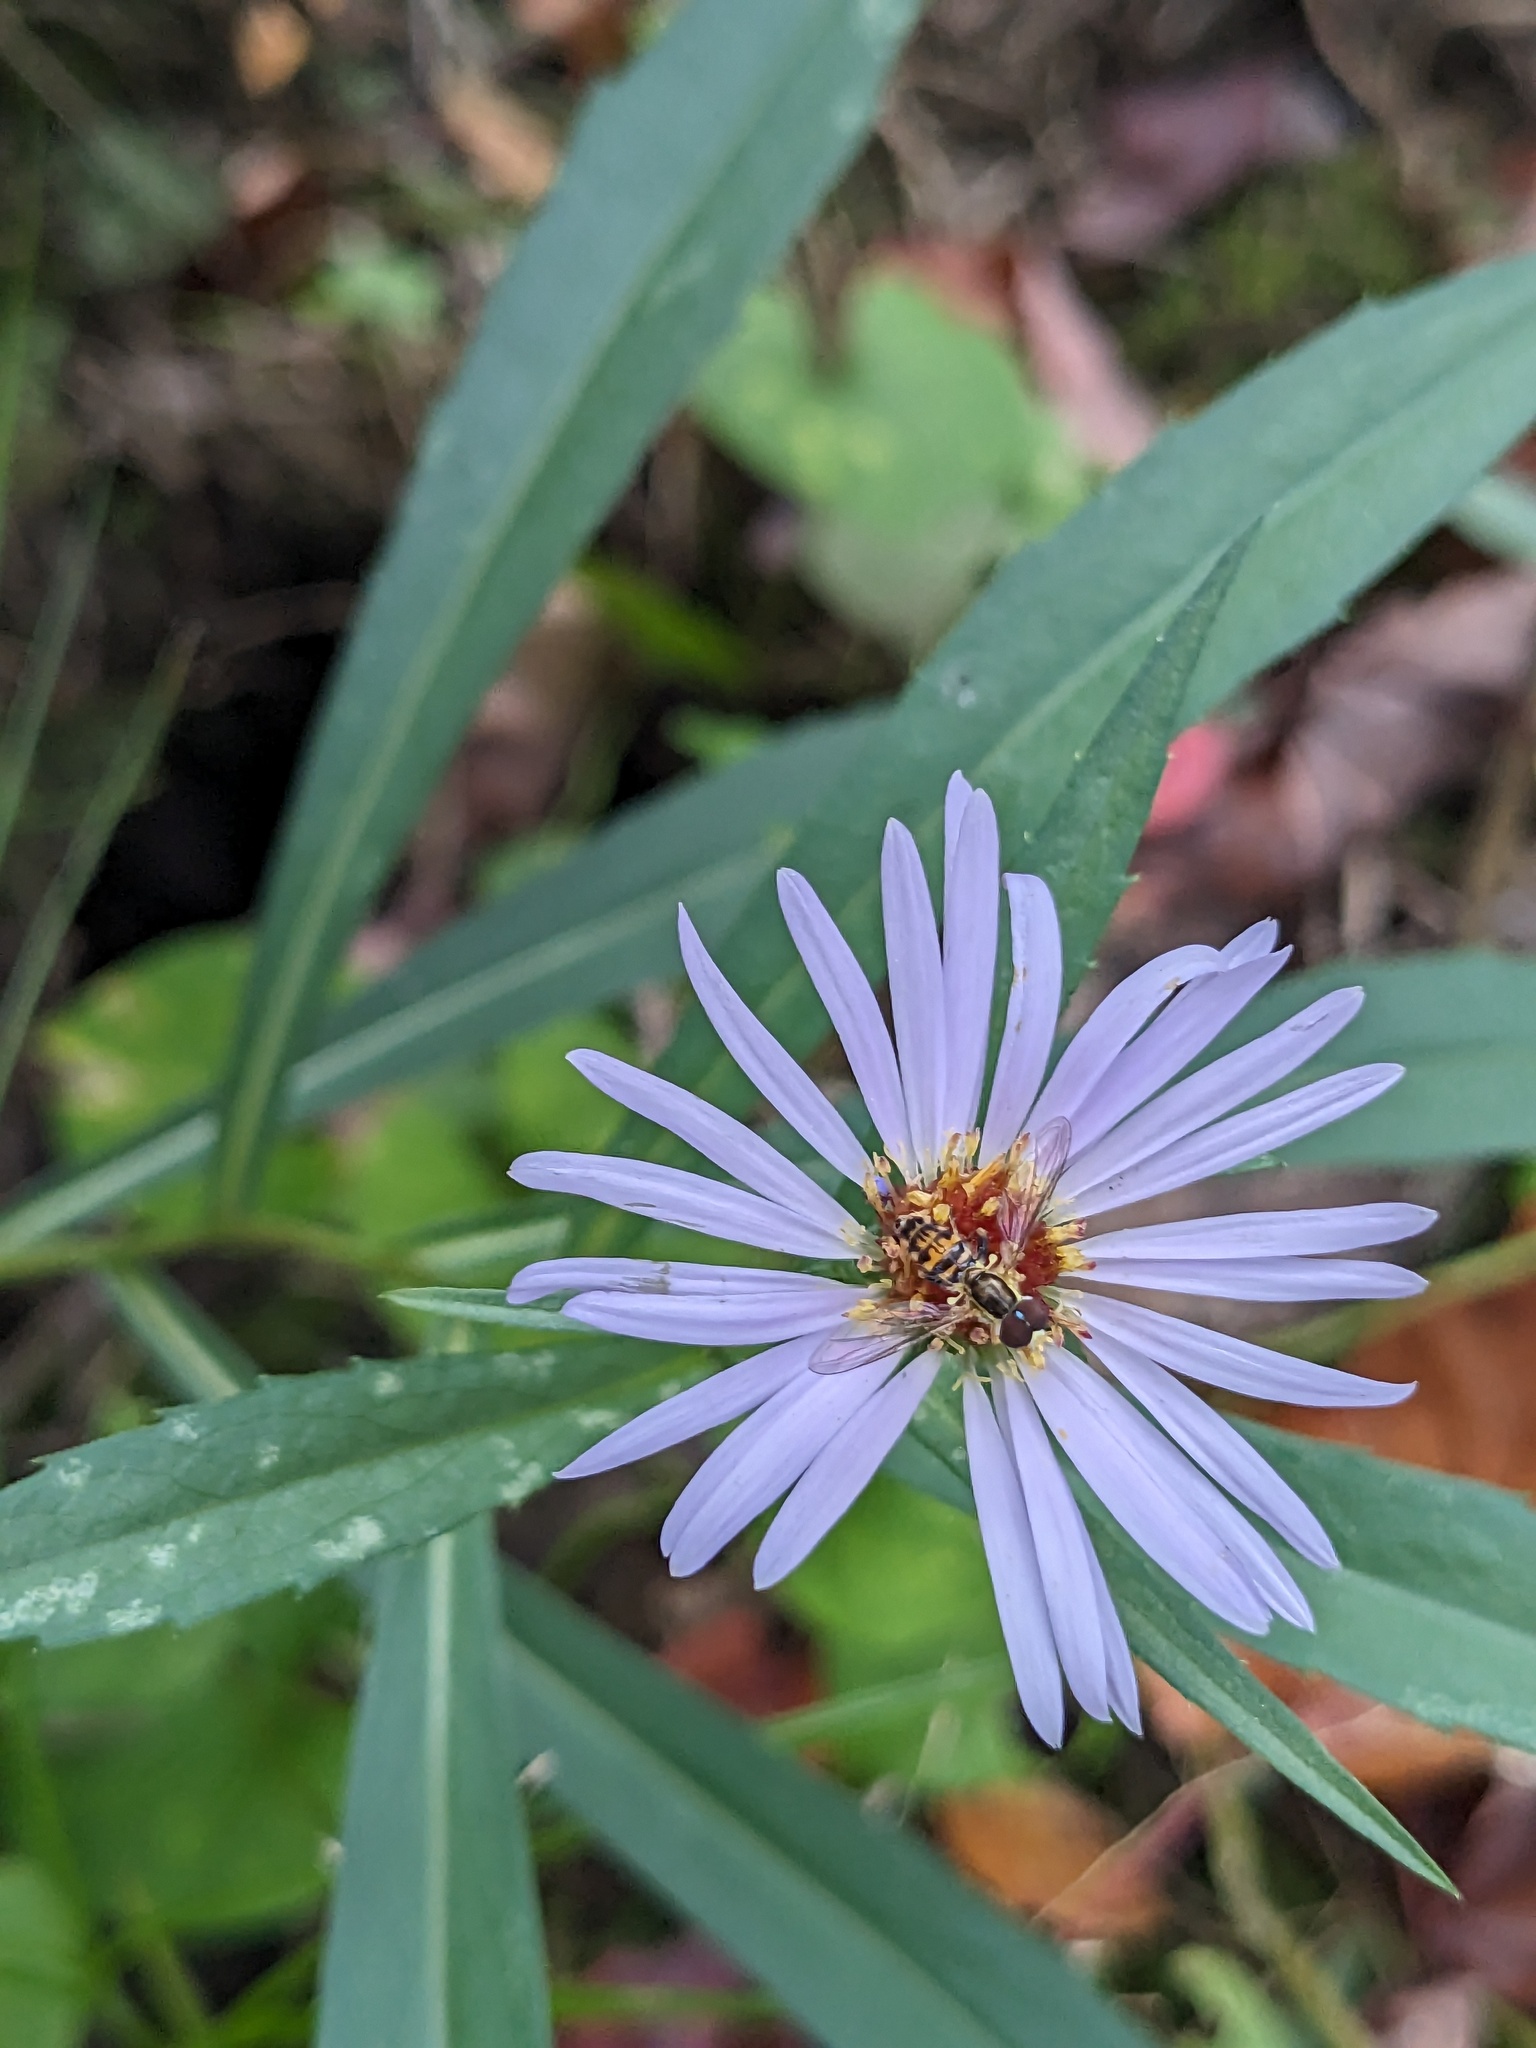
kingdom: Animalia
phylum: Arthropoda
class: Insecta
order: Diptera
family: Syrphidae
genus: Toxomerus
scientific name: Toxomerus geminatus
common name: Eastern calligrapher
